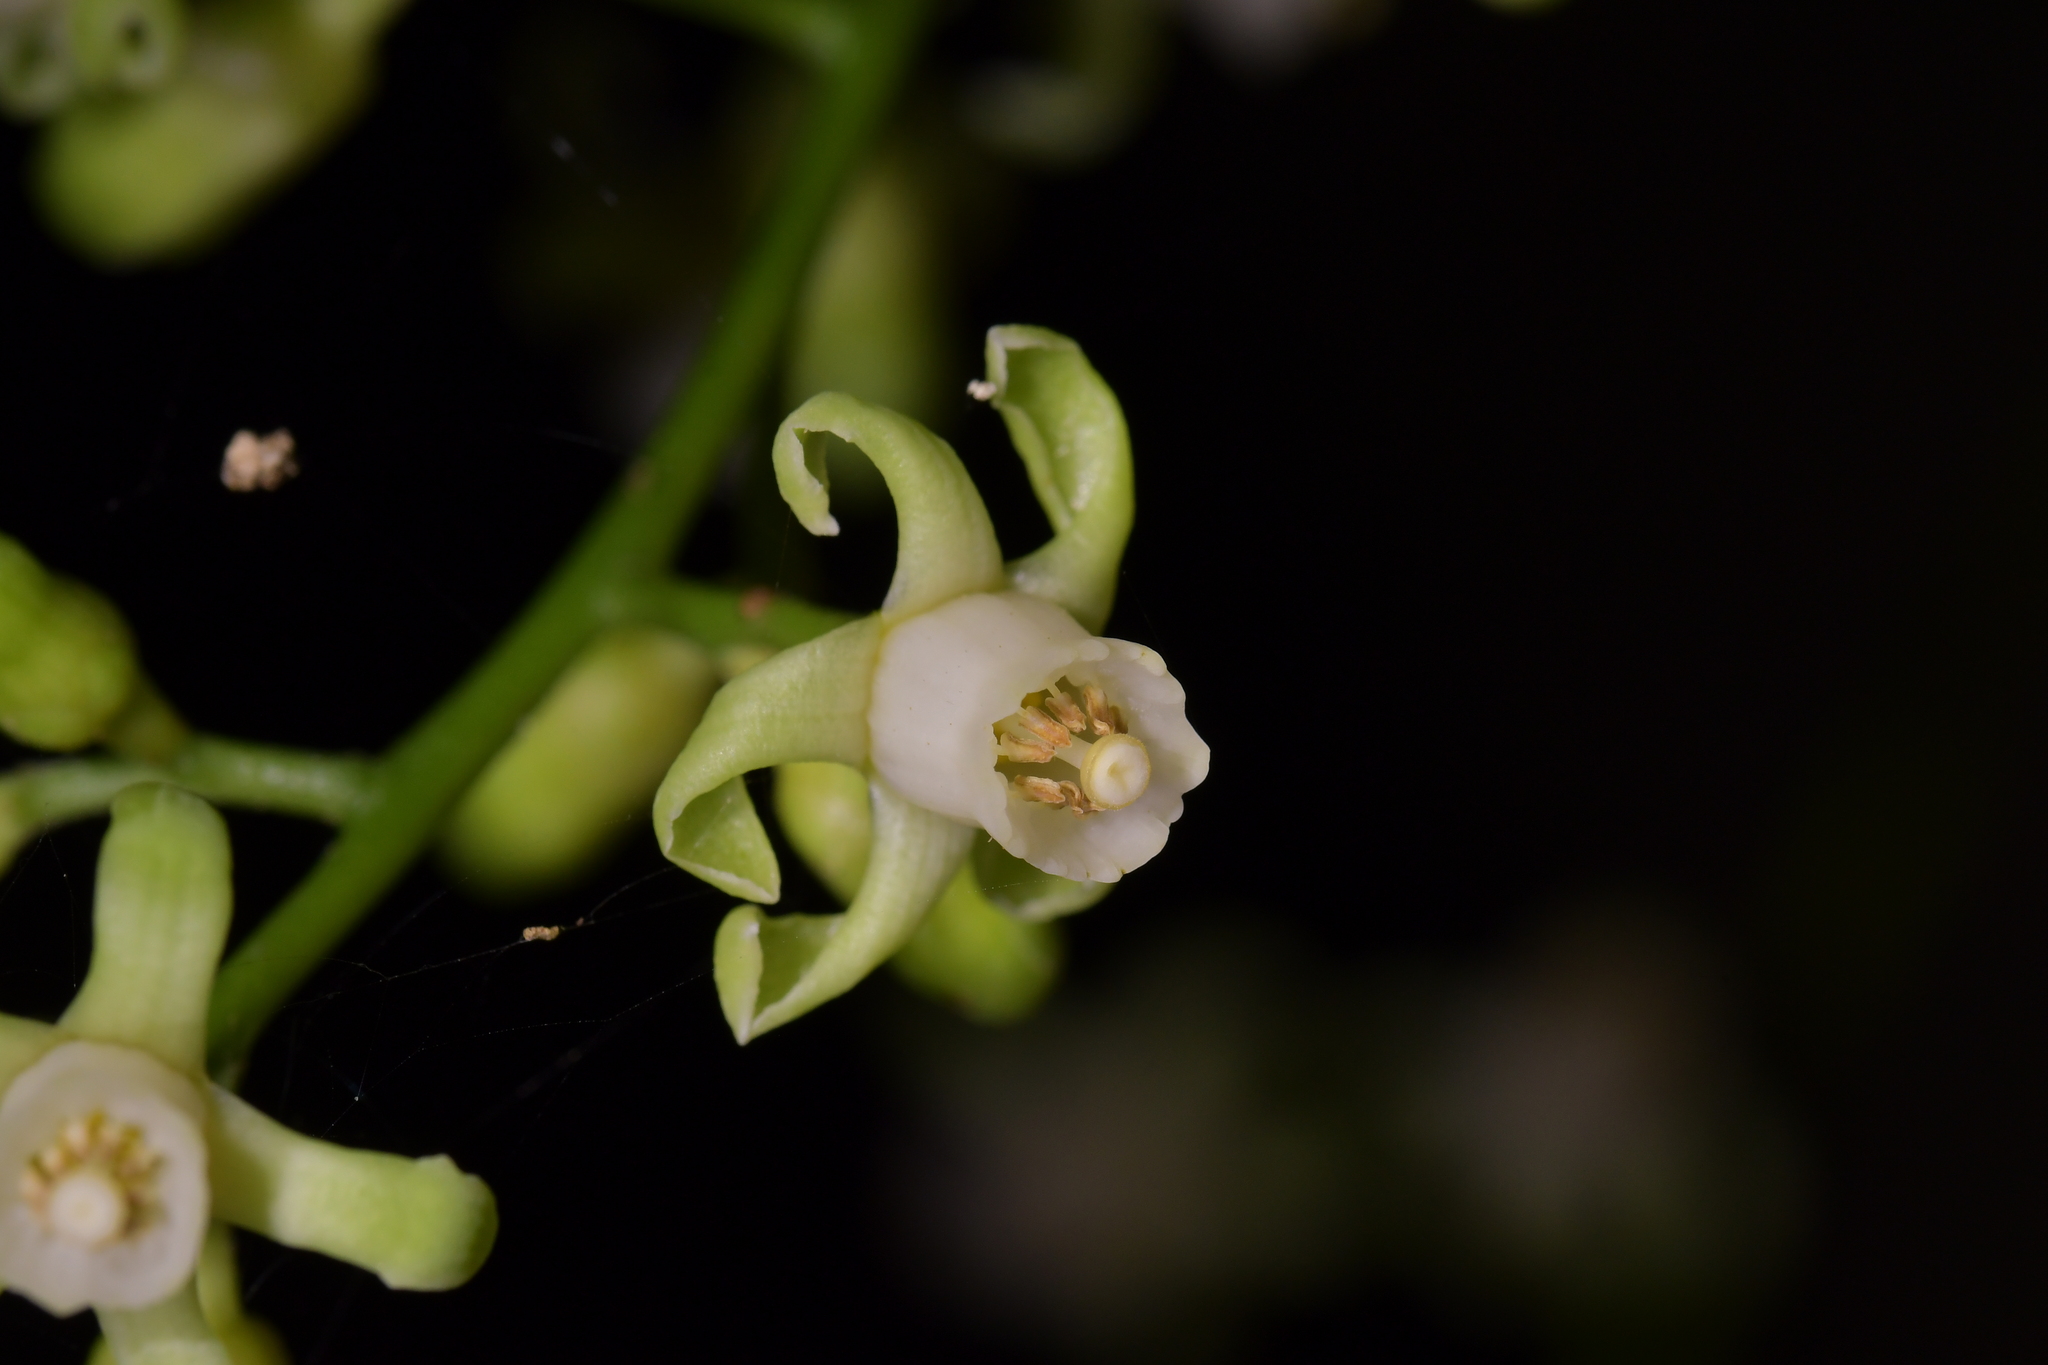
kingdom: Plantae
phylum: Tracheophyta
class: Magnoliopsida
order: Sapindales
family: Meliaceae
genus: Didymocheton
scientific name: Didymocheton spectabilis
